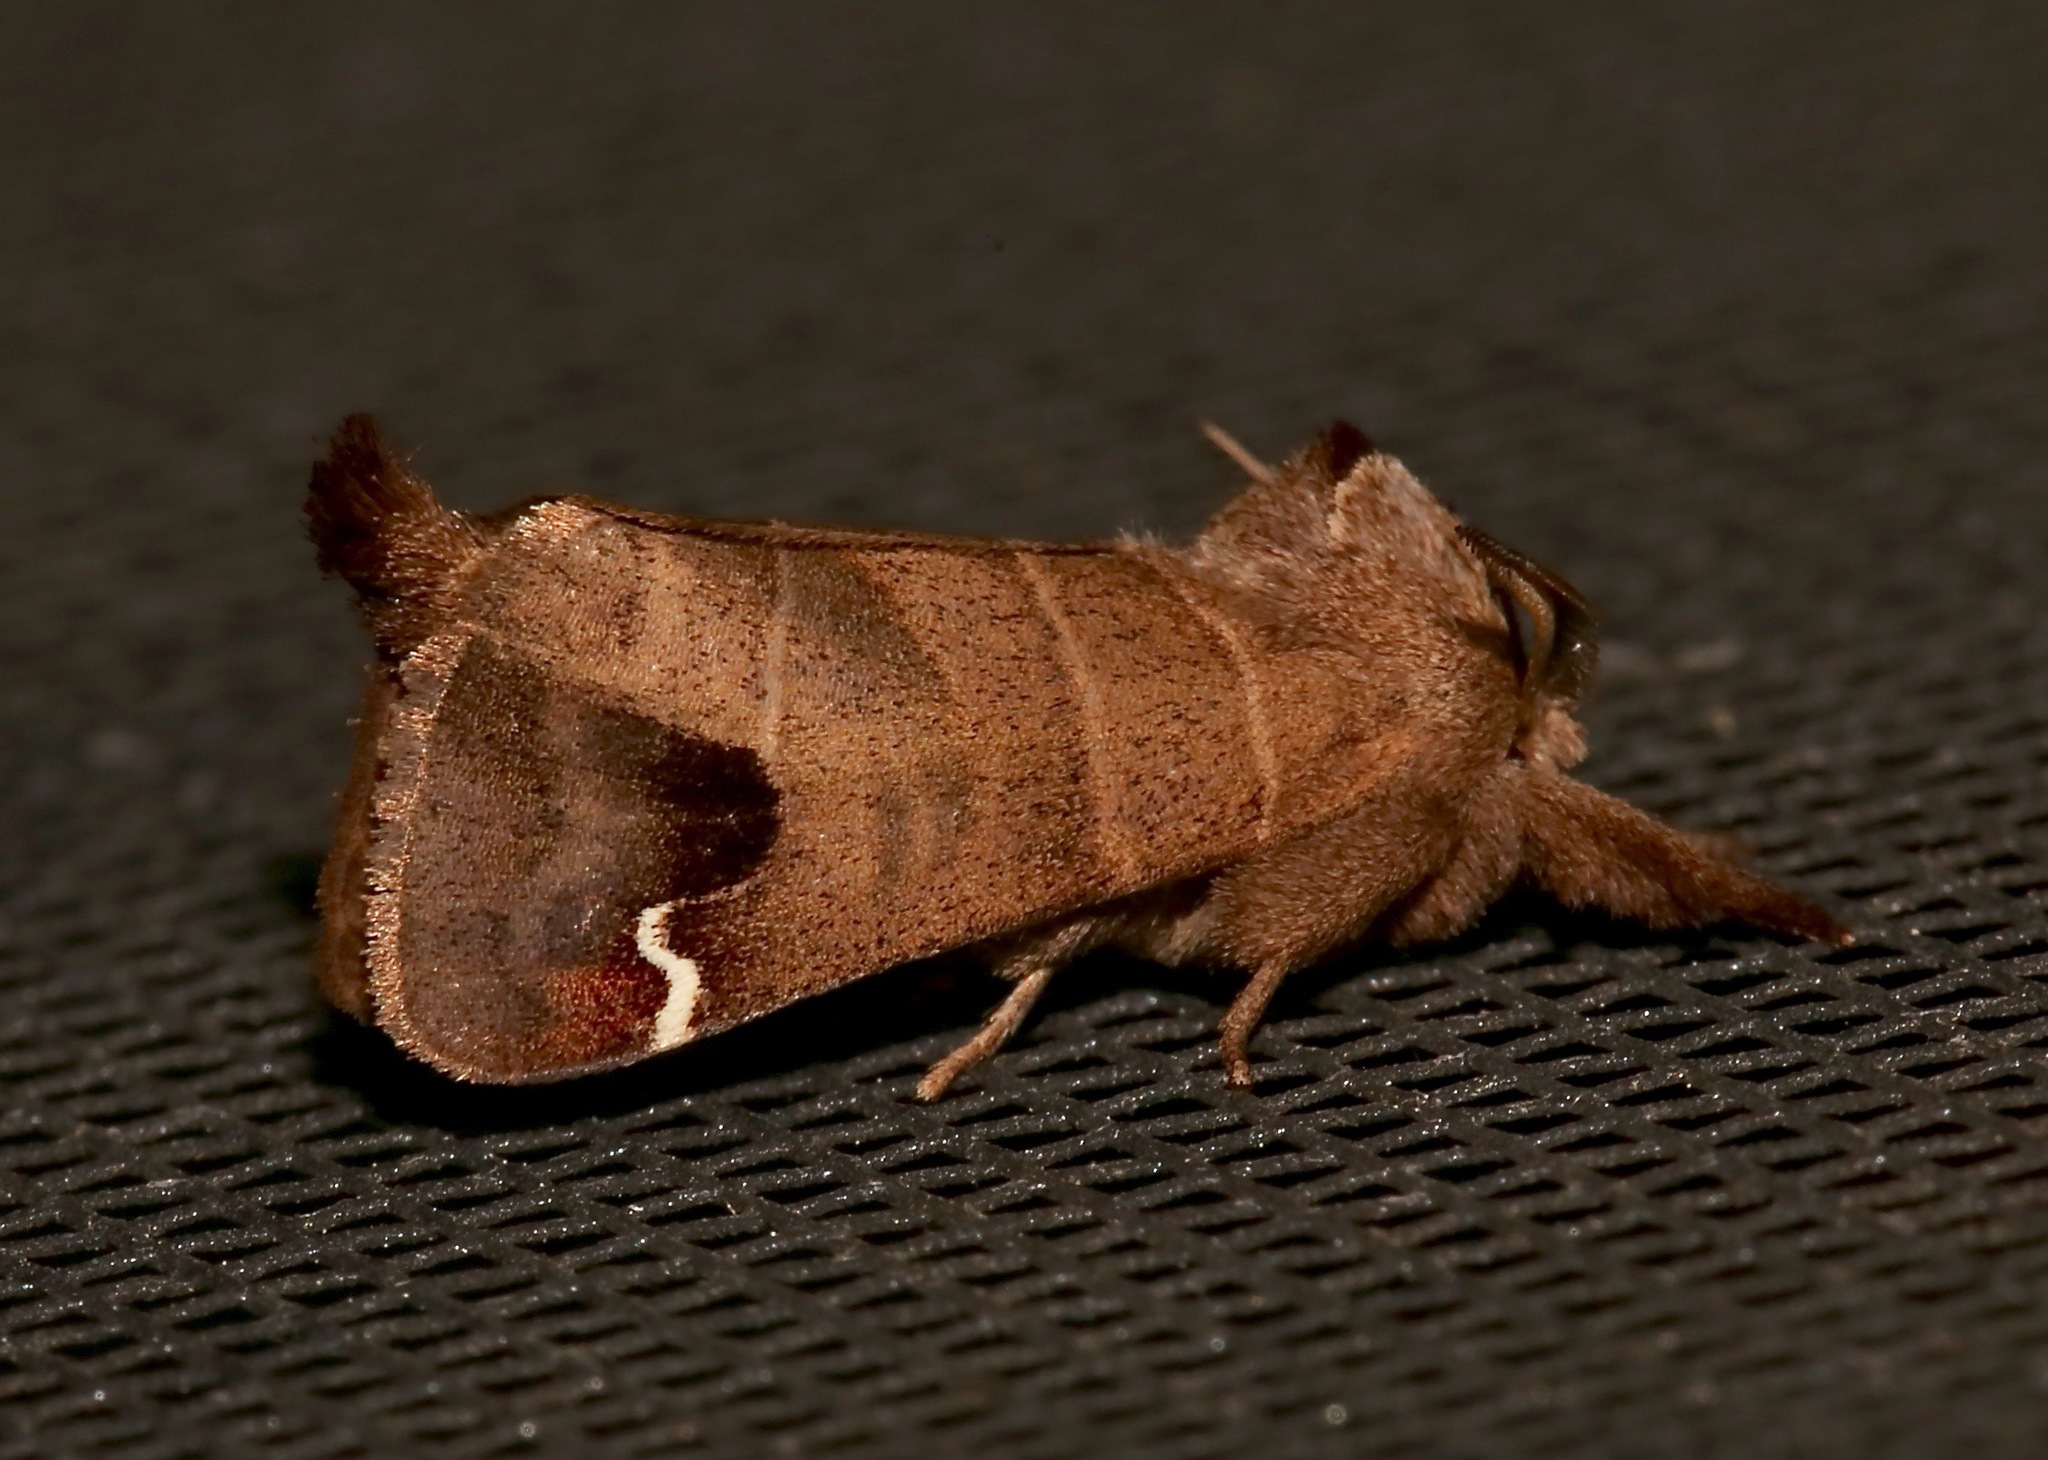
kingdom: Animalia
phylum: Arthropoda
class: Insecta
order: Lepidoptera
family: Notodontidae
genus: Clostera
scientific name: Clostera albosigma
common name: Sigmoid prominent
